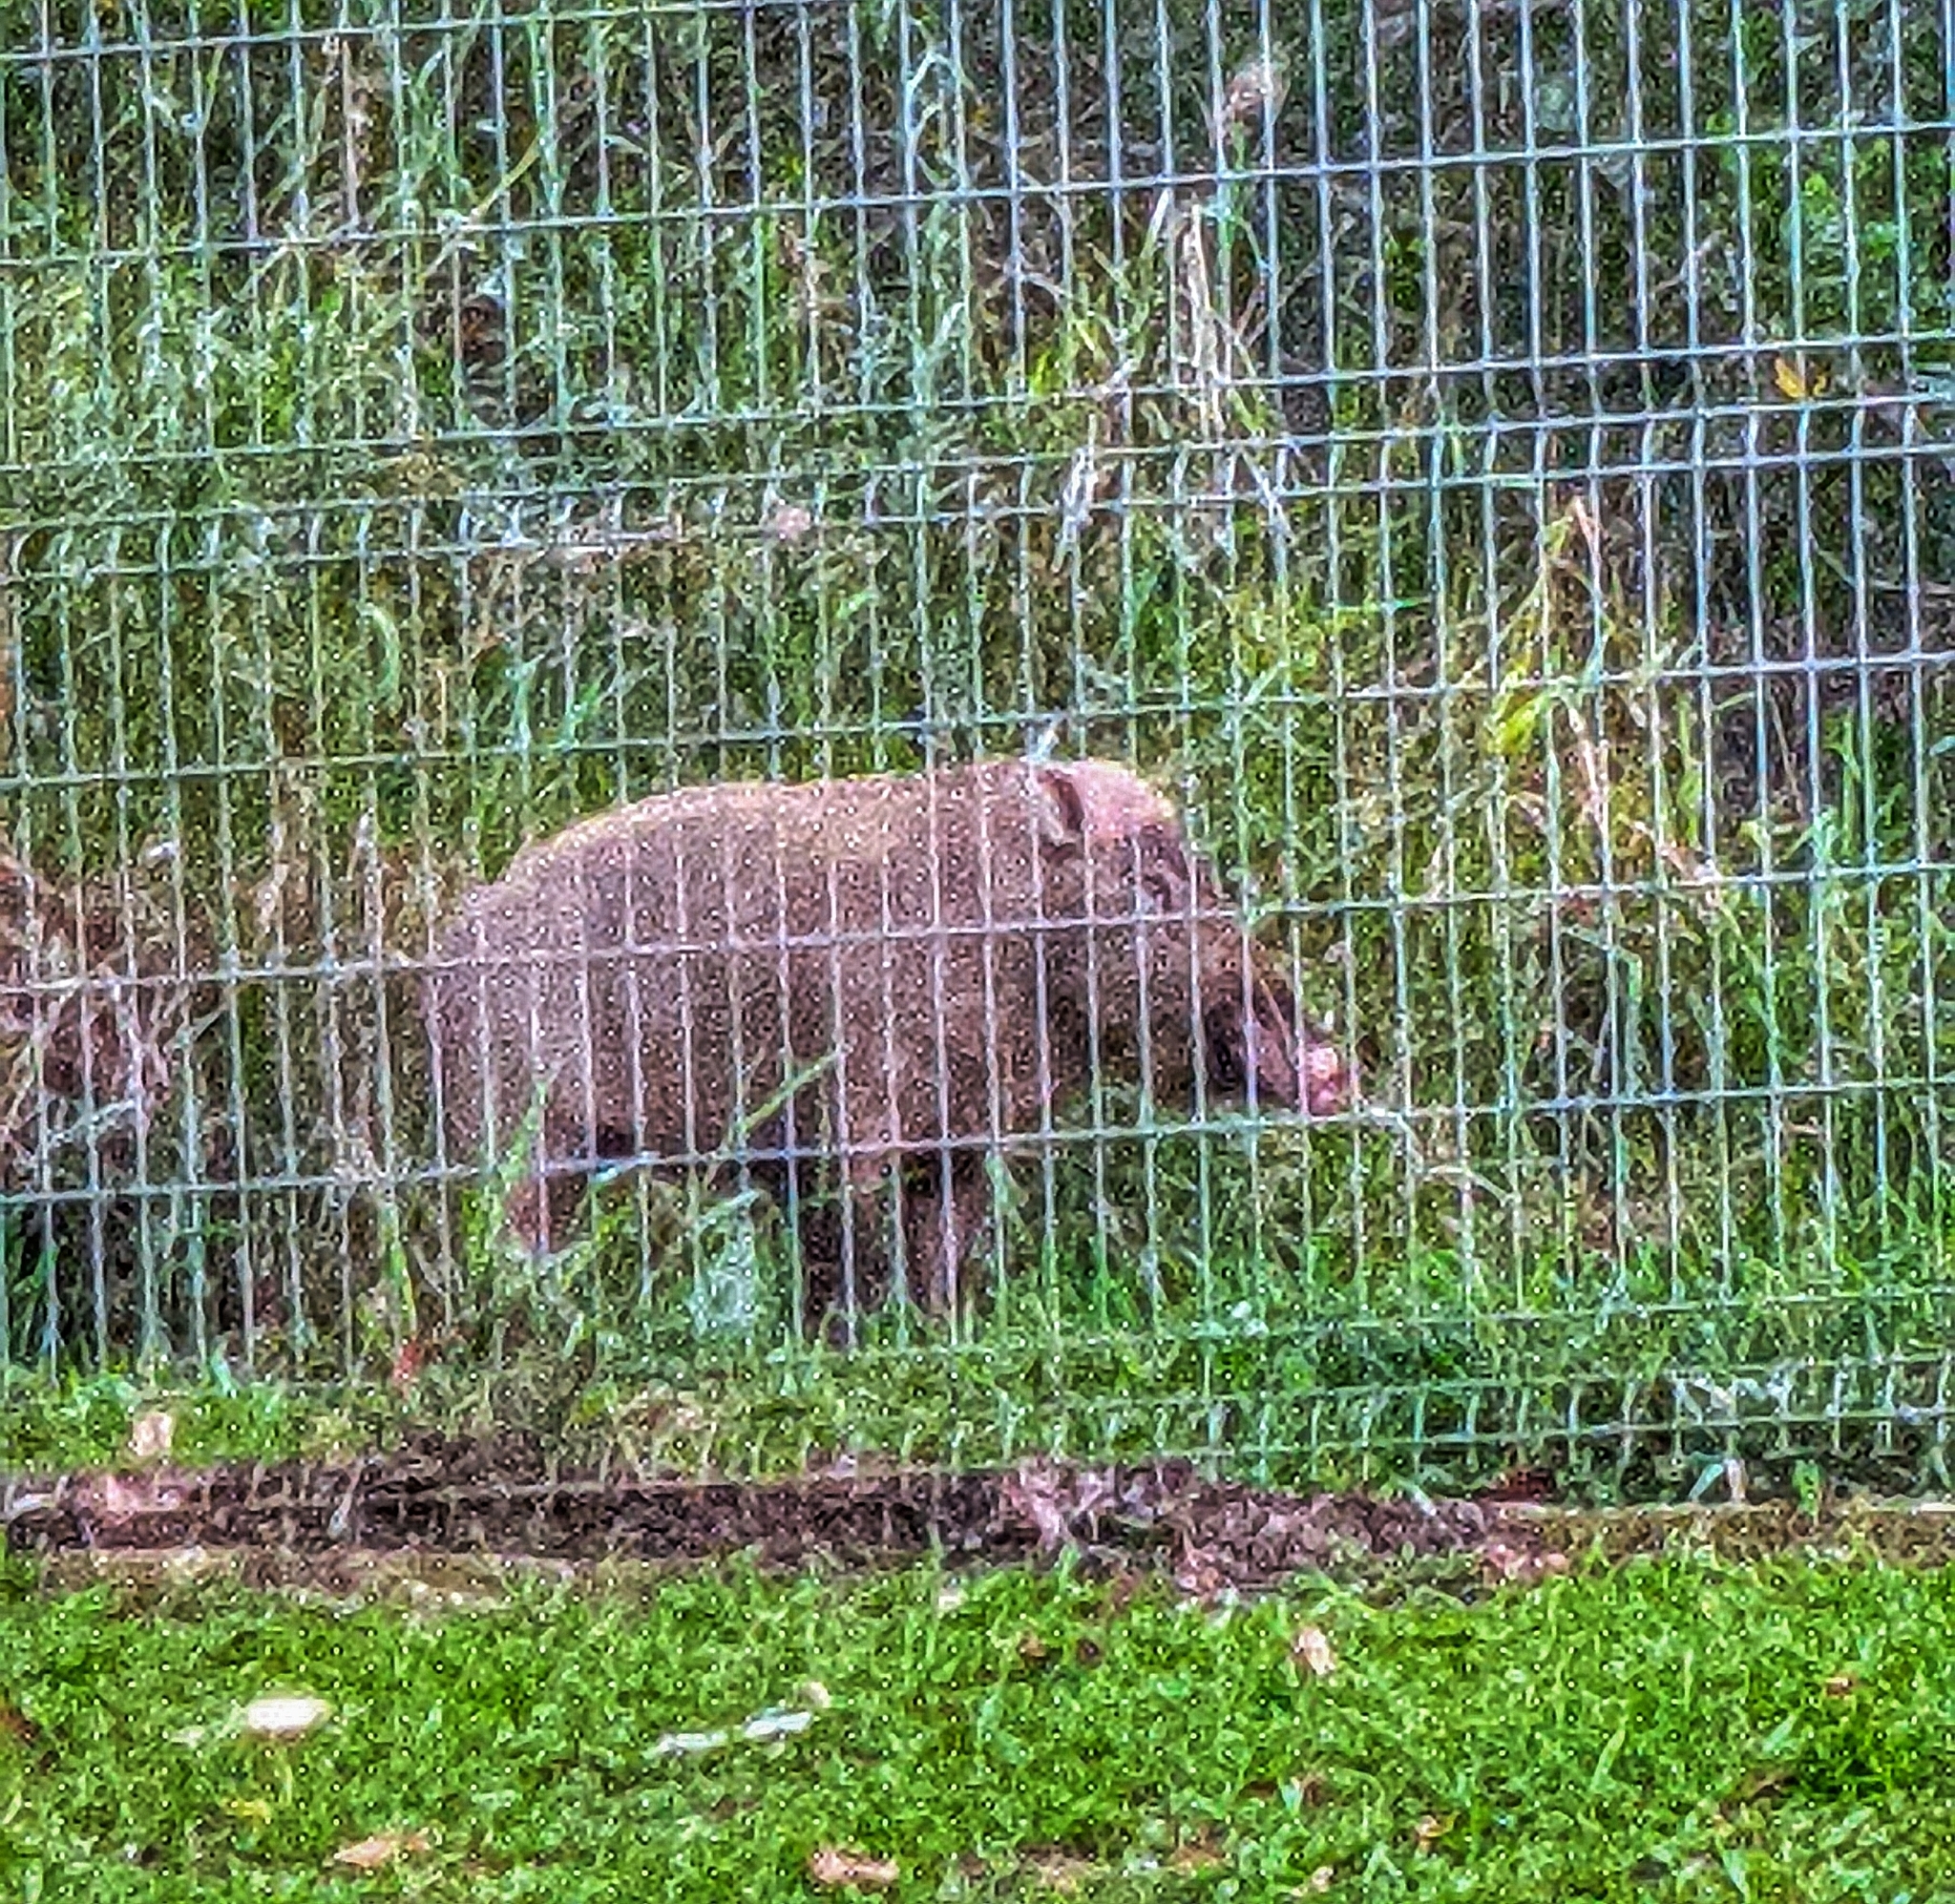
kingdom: Animalia
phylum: Chordata
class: Mammalia
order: Artiodactyla
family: Suidae
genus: Sus
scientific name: Sus barbatus
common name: Bearded pig
